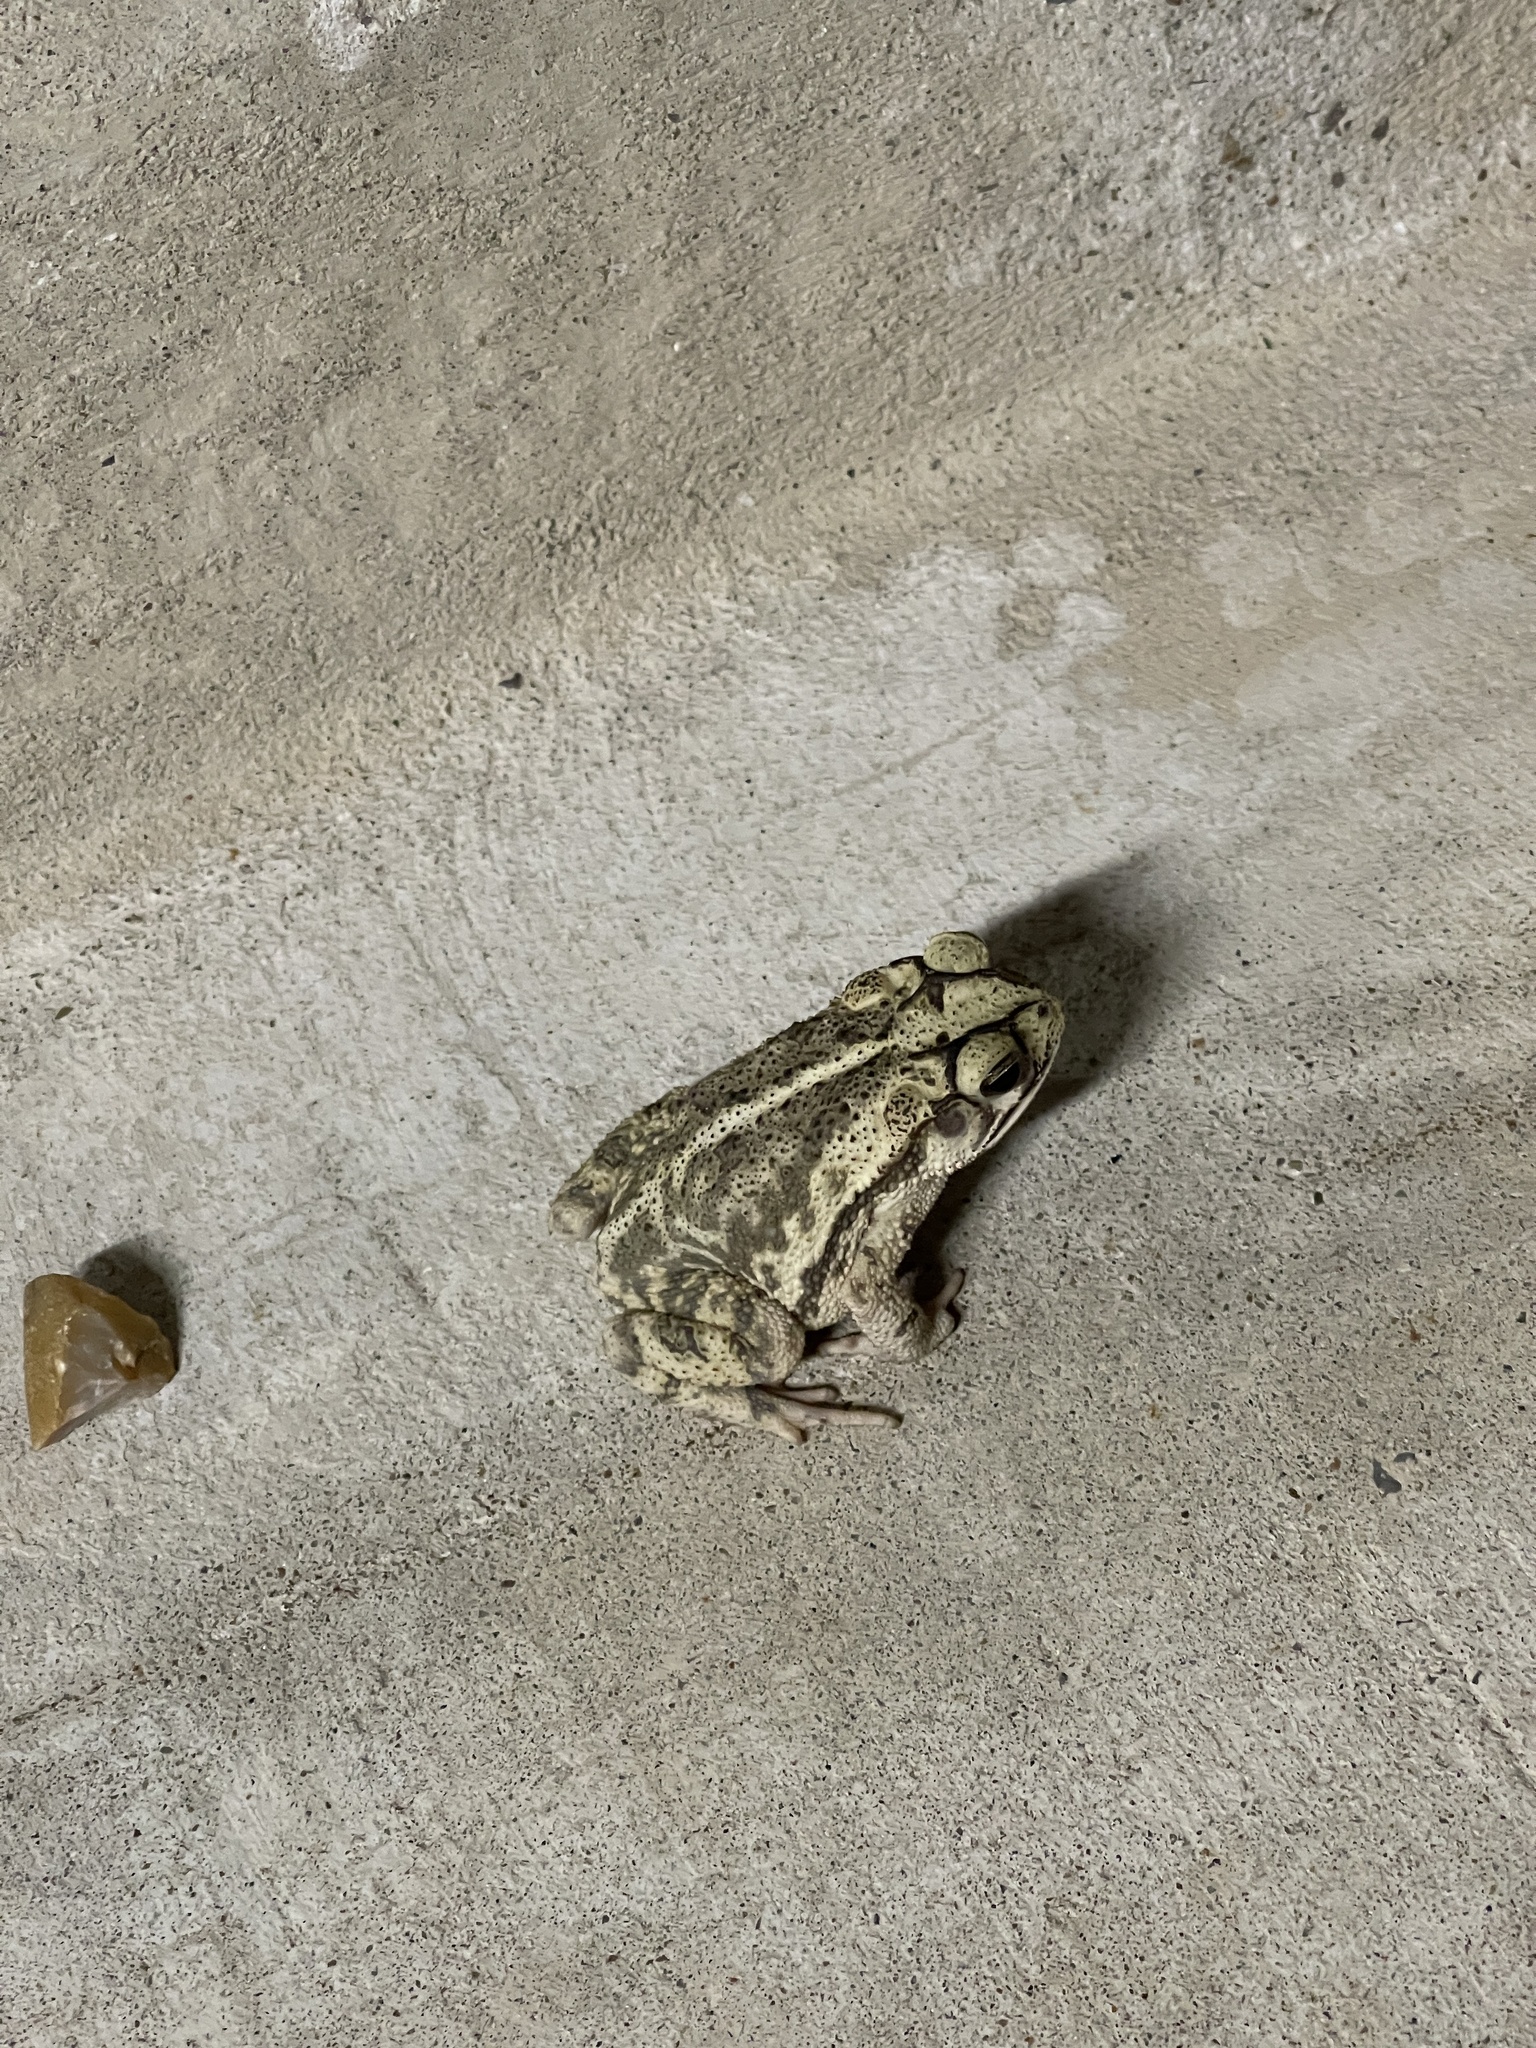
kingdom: Animalia
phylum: Chordata
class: Amphibia
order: Anura
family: Bufonidae
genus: Incilius
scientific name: Incilius nebulifer
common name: Gulf coast toad
